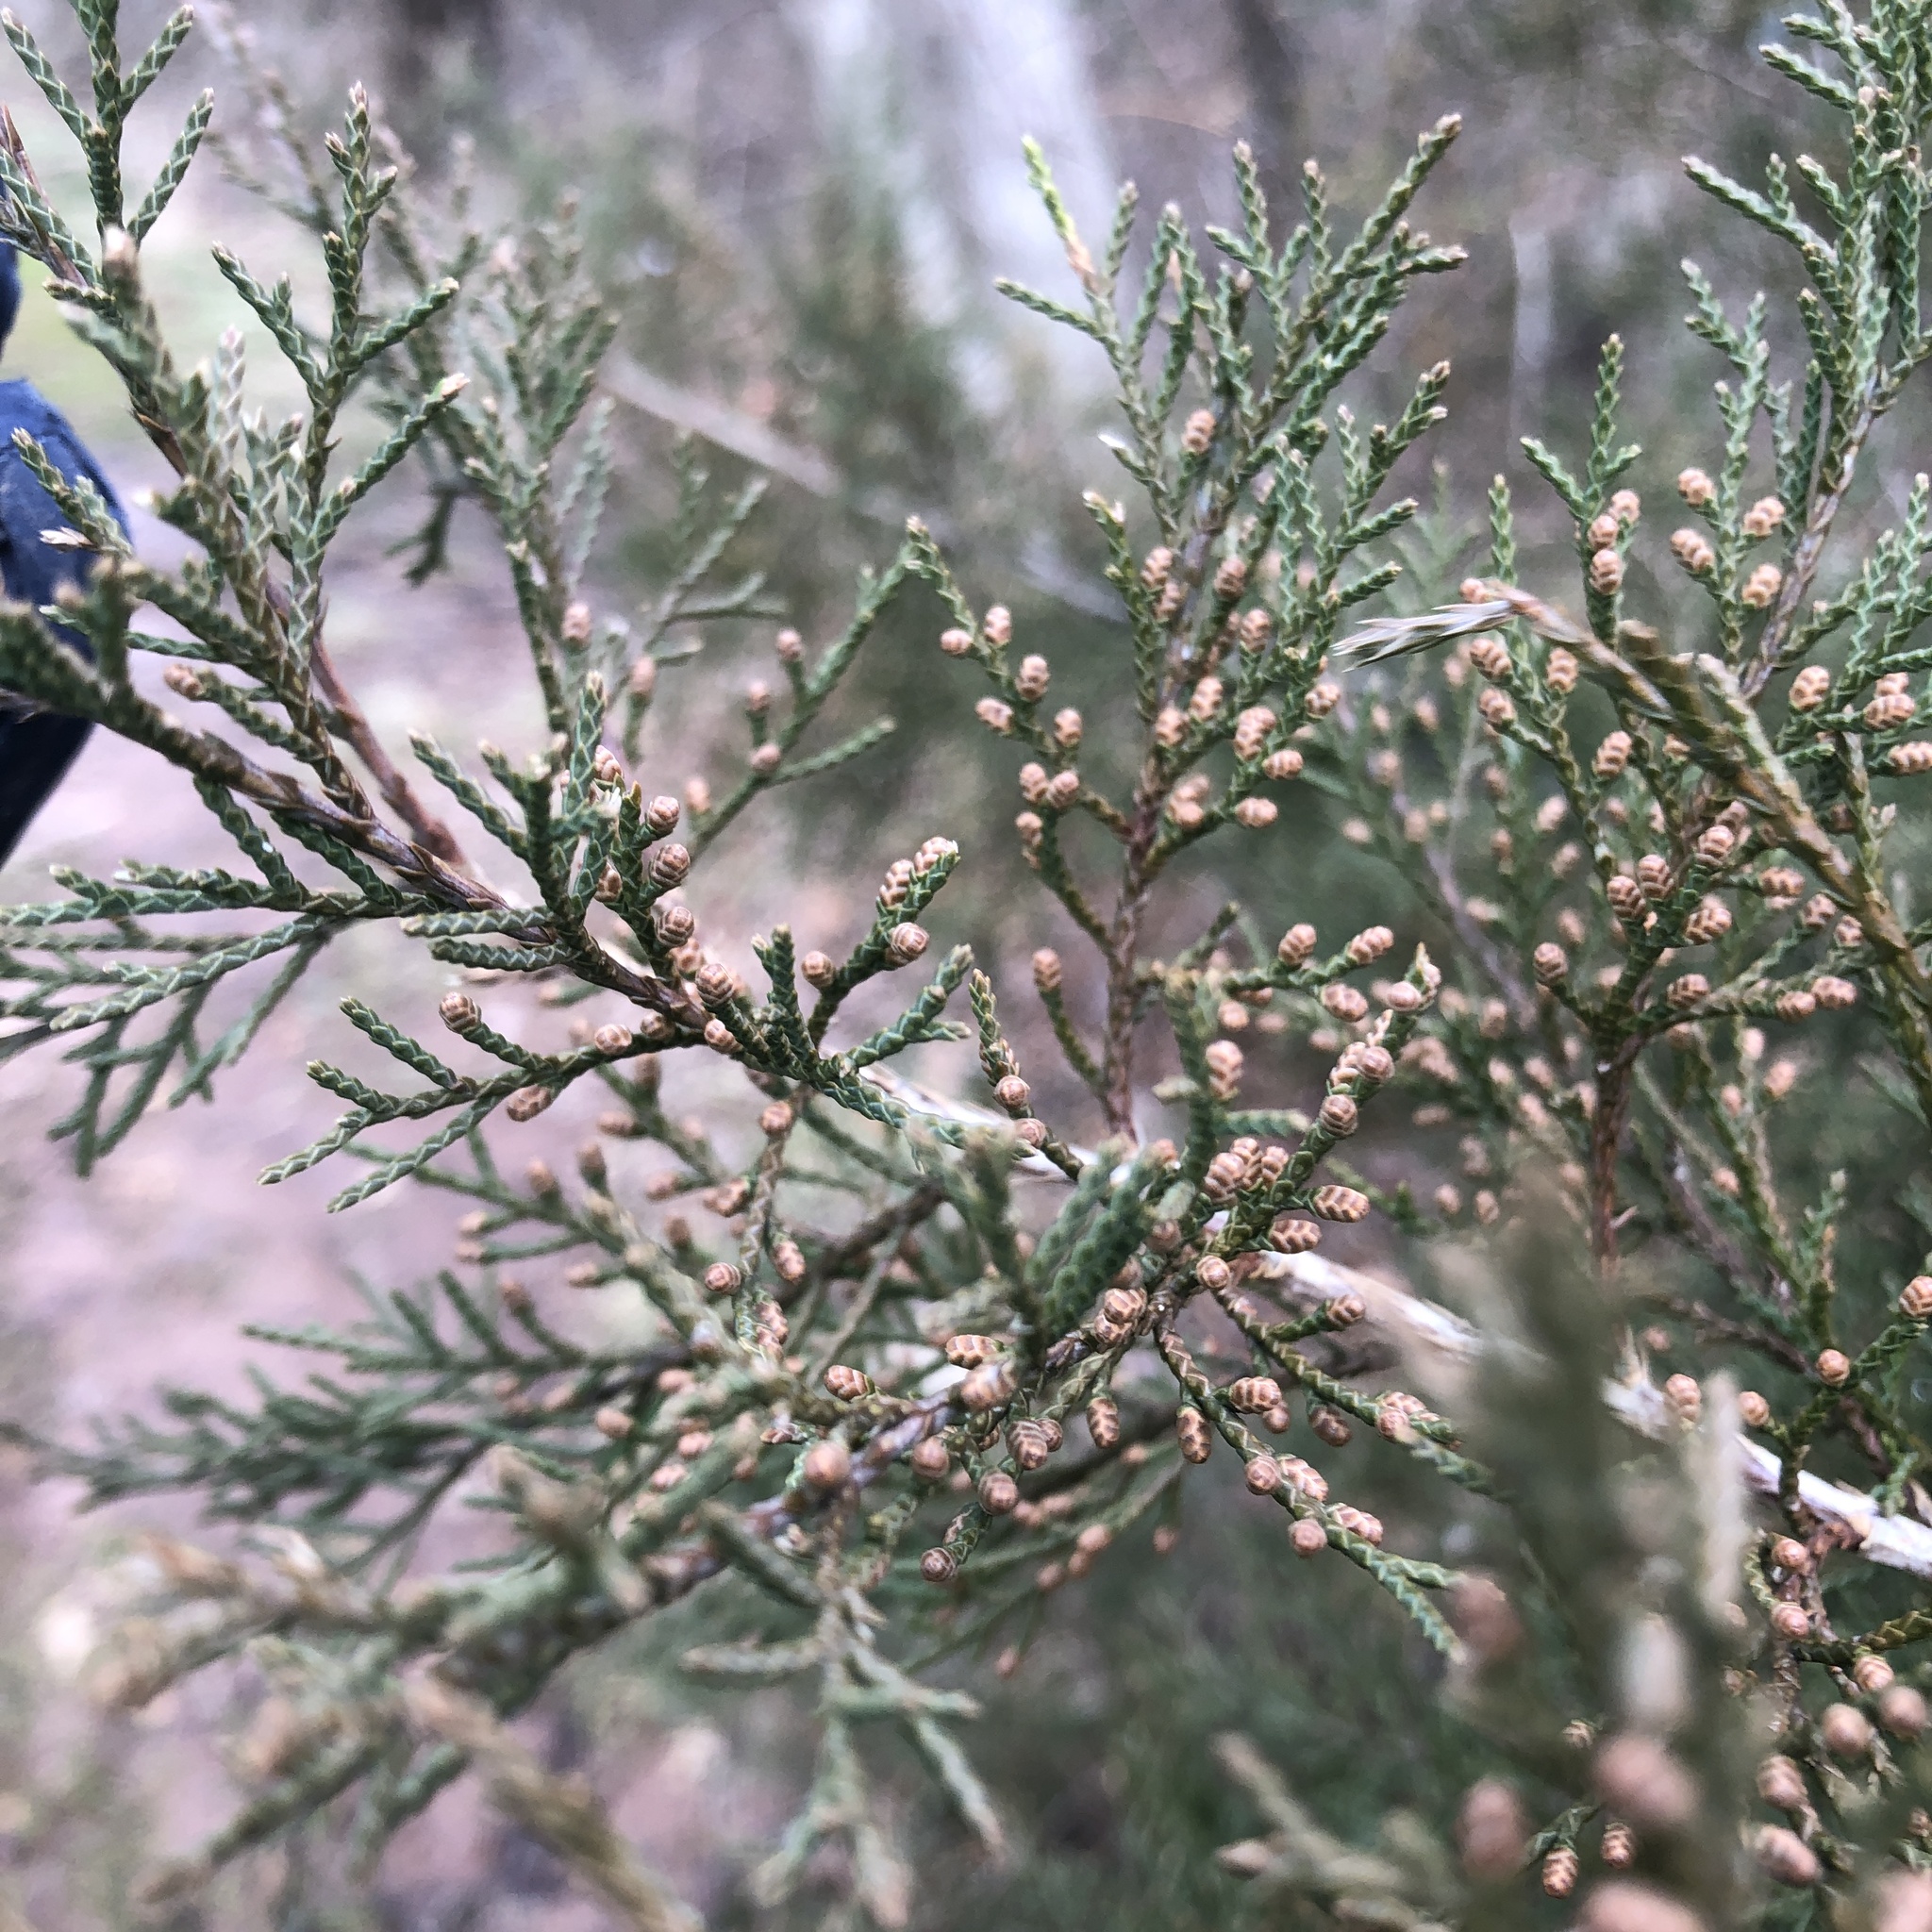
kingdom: Plantae
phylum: Tracheophyta
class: Pinopsida
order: Pinales
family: Cupressaceae
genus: Juniperus
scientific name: Juniperus virginiana
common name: Red juniper
